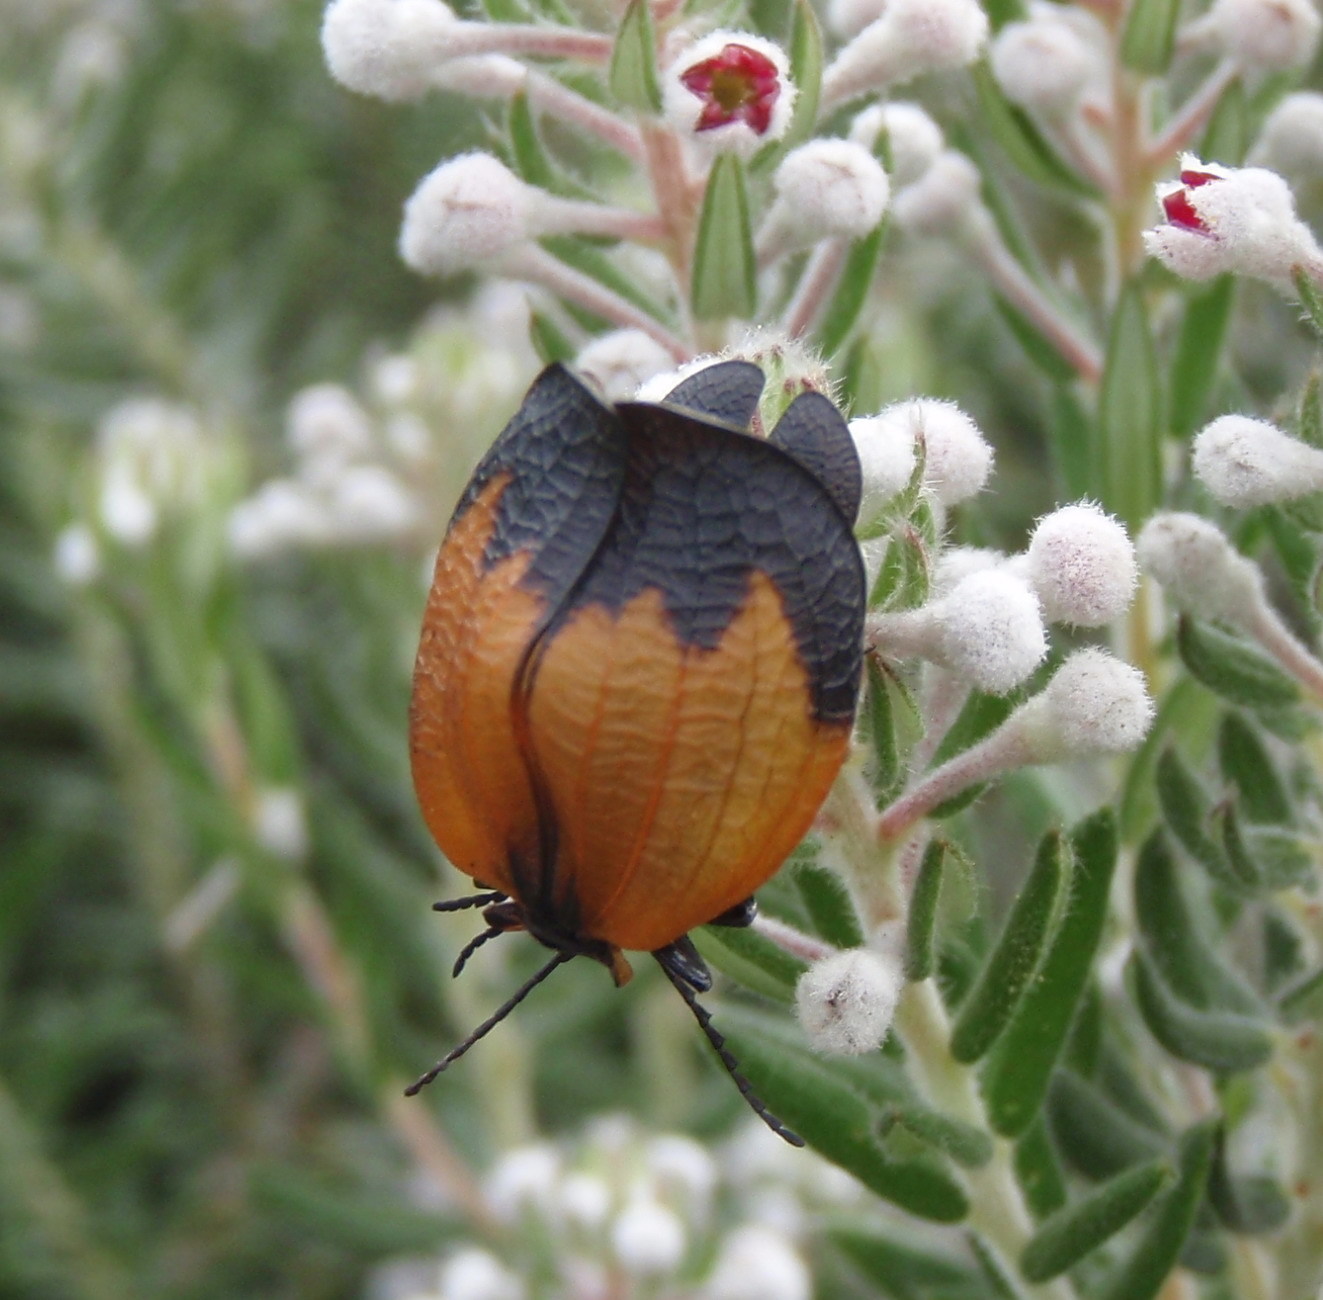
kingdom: Animalia
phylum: Arthropoda
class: Insecta
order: Coleoptera
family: Lycidae
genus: Lycus
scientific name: Lycus
